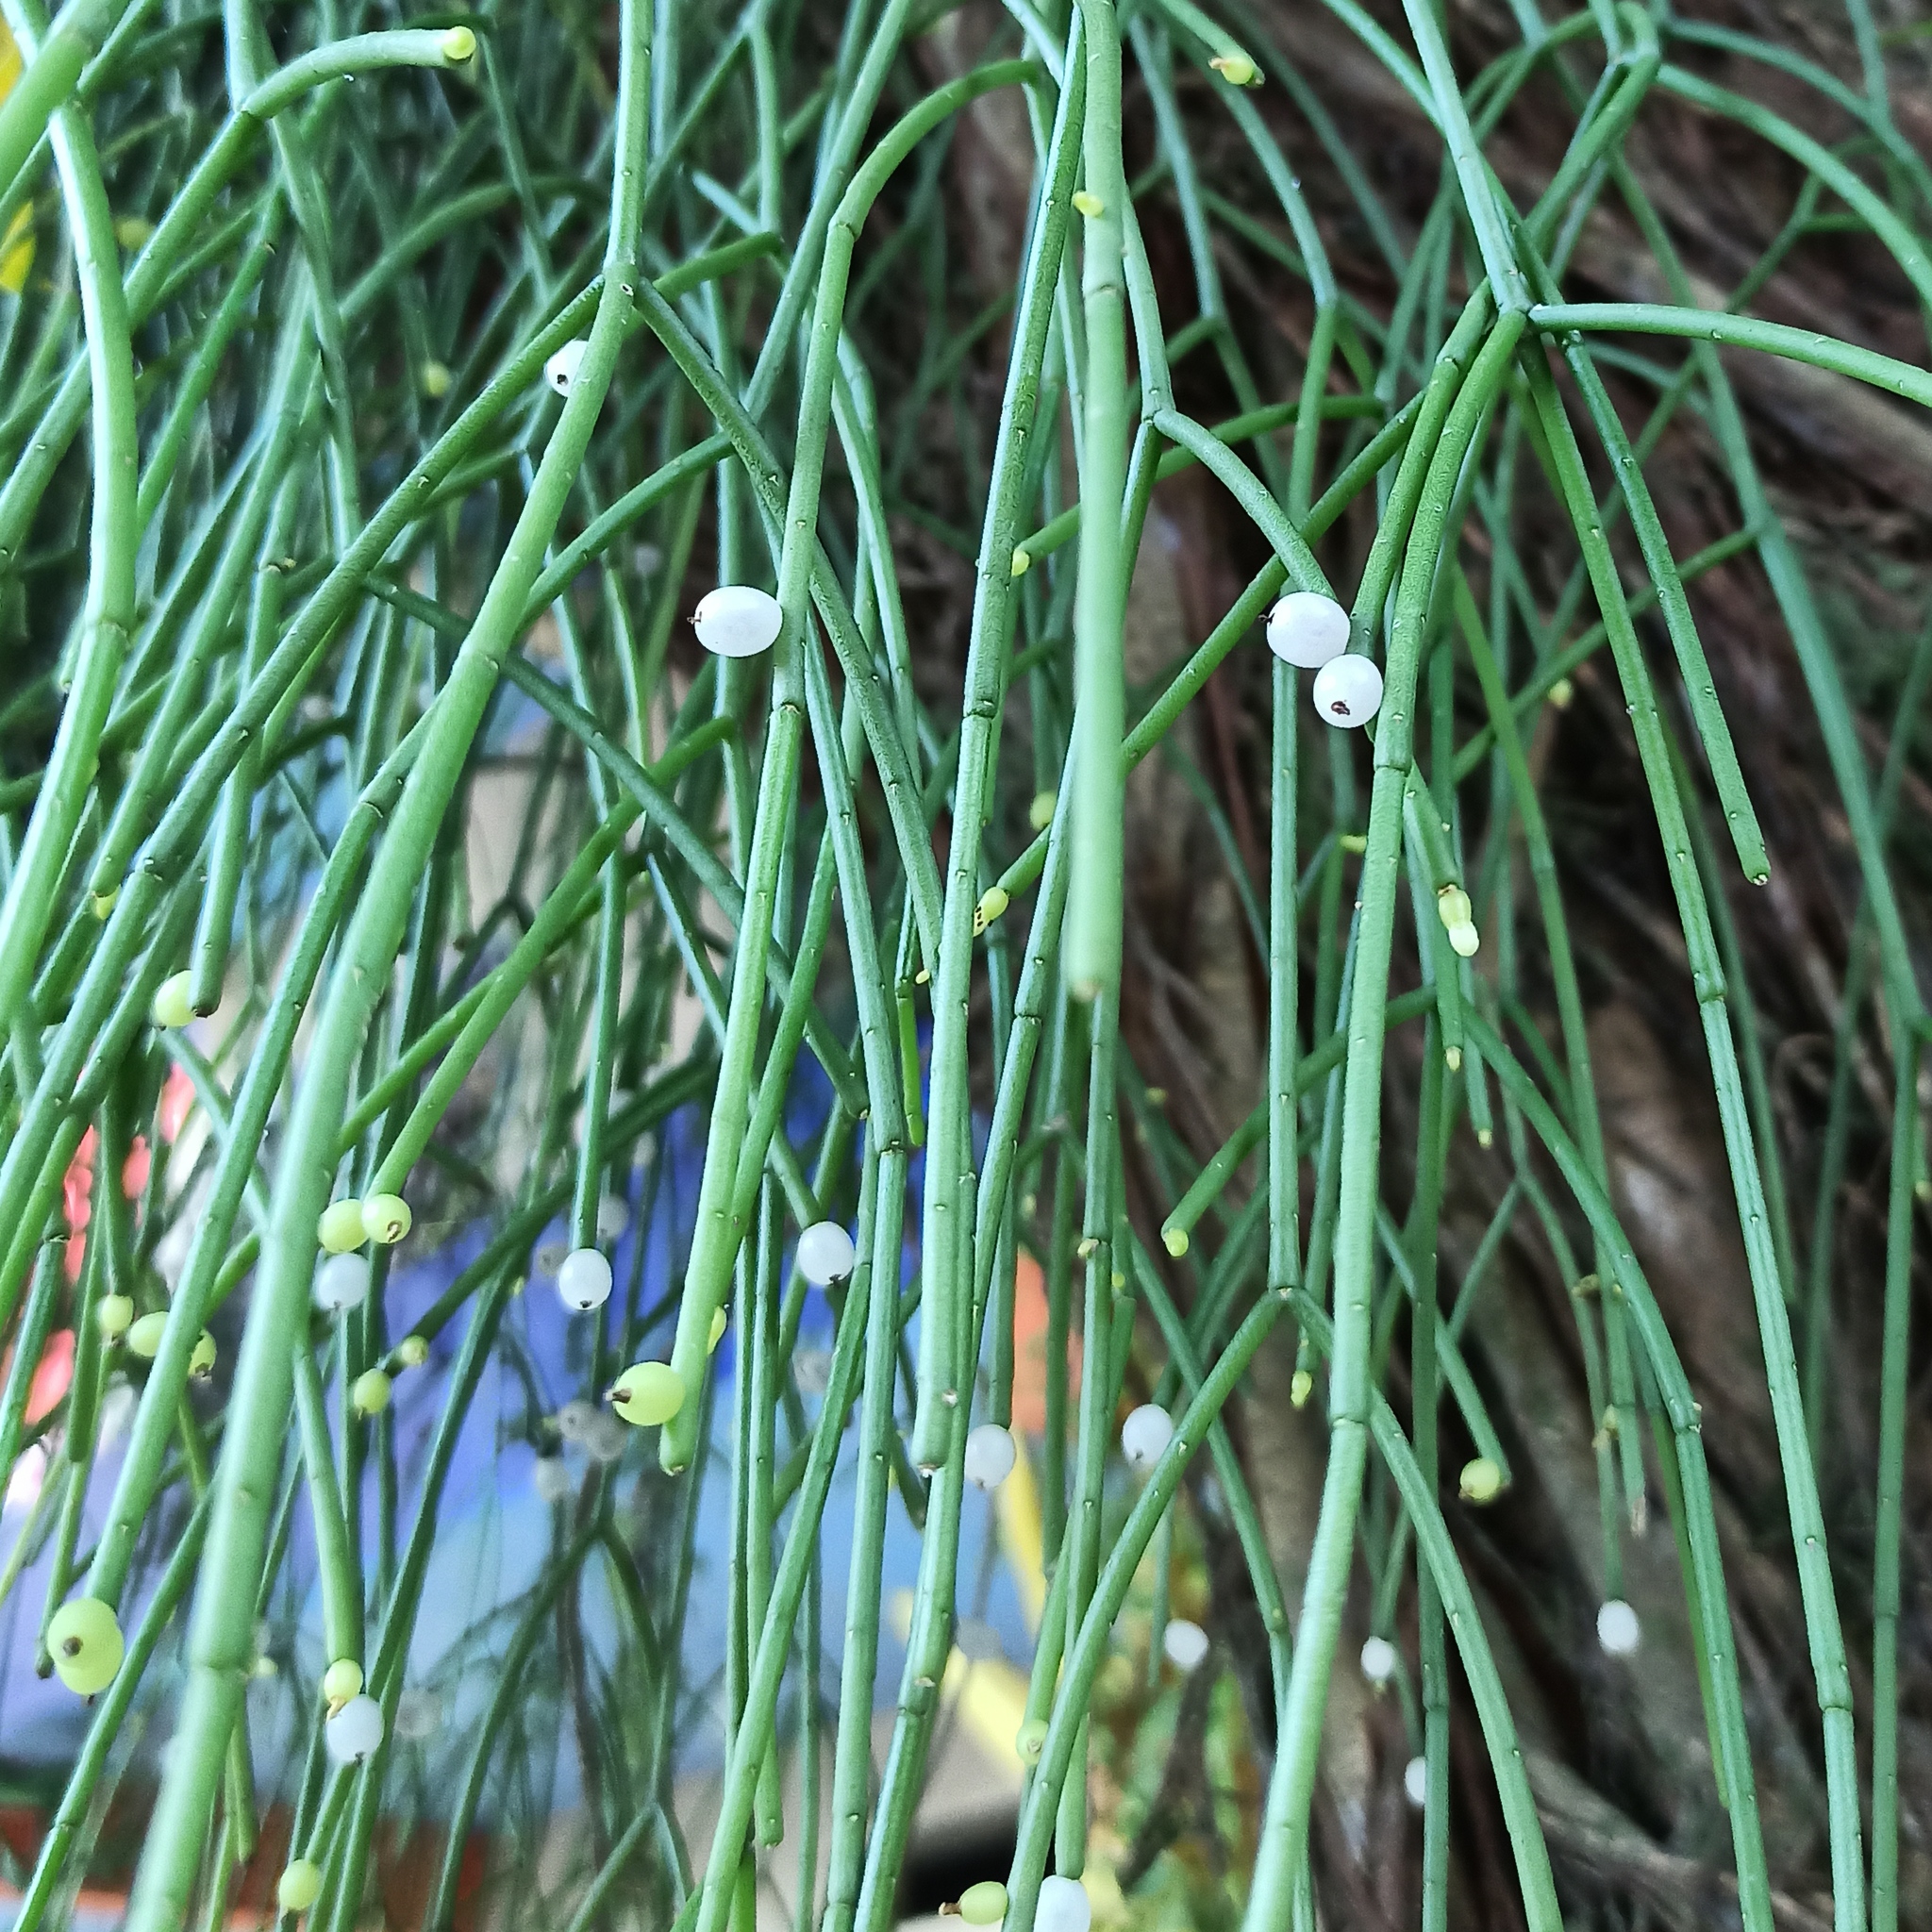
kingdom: Plantae
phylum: Tracheophyta
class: Magnoliopsida
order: Caryophyllales
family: Cactaceae
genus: Rhipsalis
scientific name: Rhipsalis baccifera
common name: Mistletoe cactus
